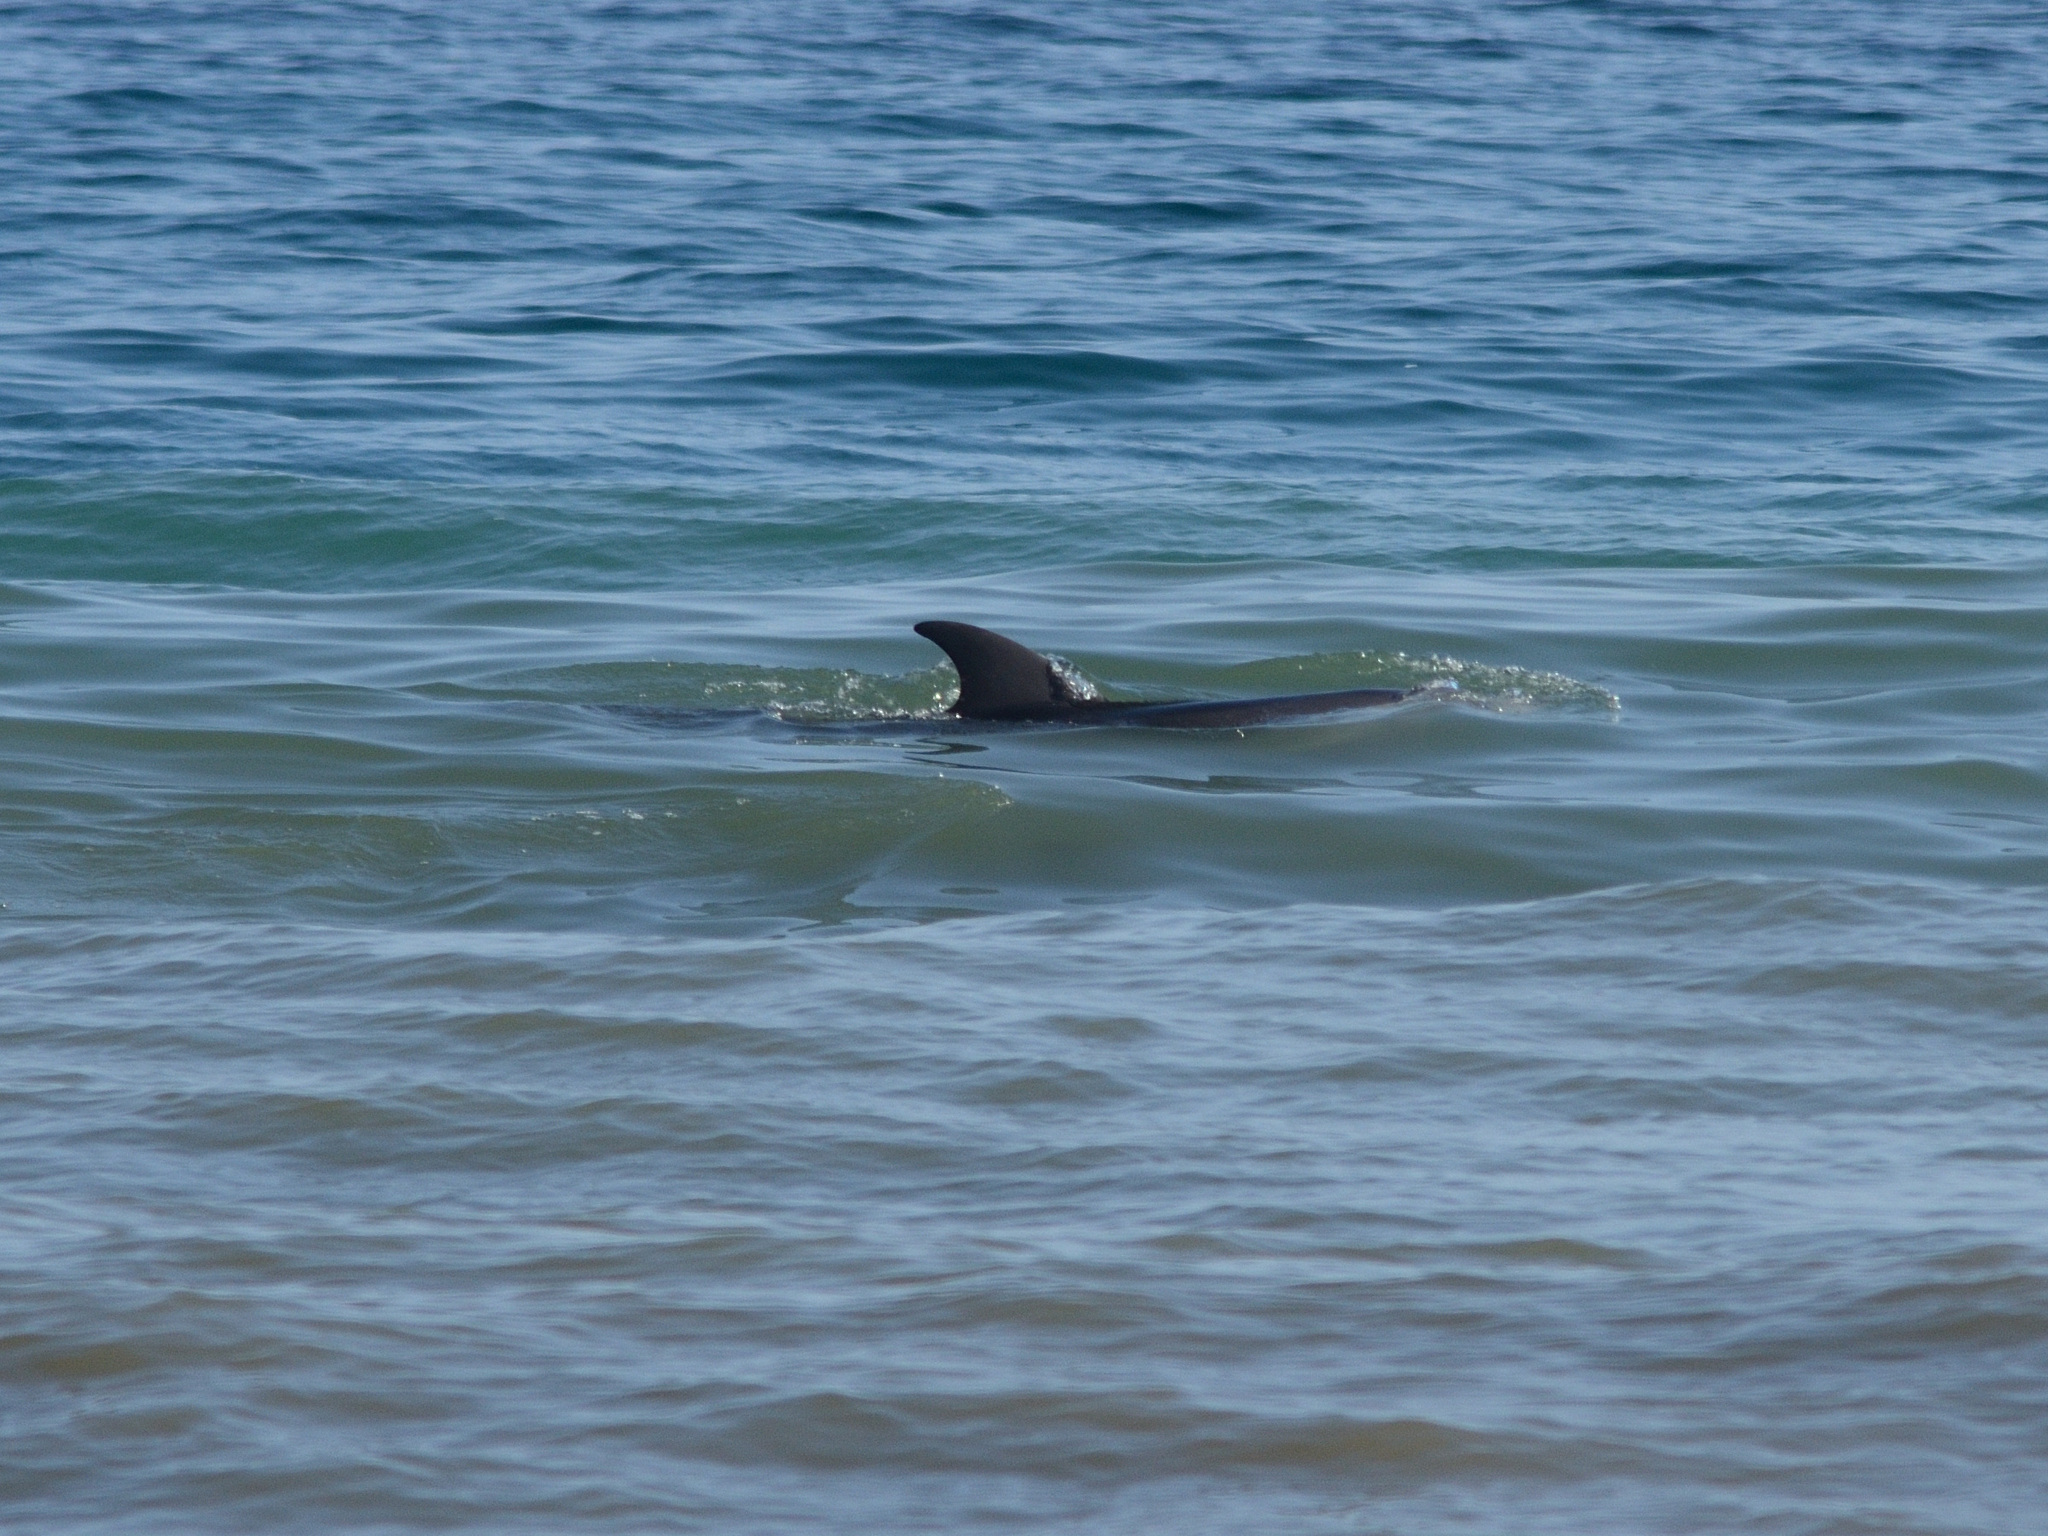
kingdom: Animalia
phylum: Chordata
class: Mammalia
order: Cetacea
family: Delphinidae
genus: Tursiops
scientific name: Tursiops truncatus
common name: Bottlenose dolphin
